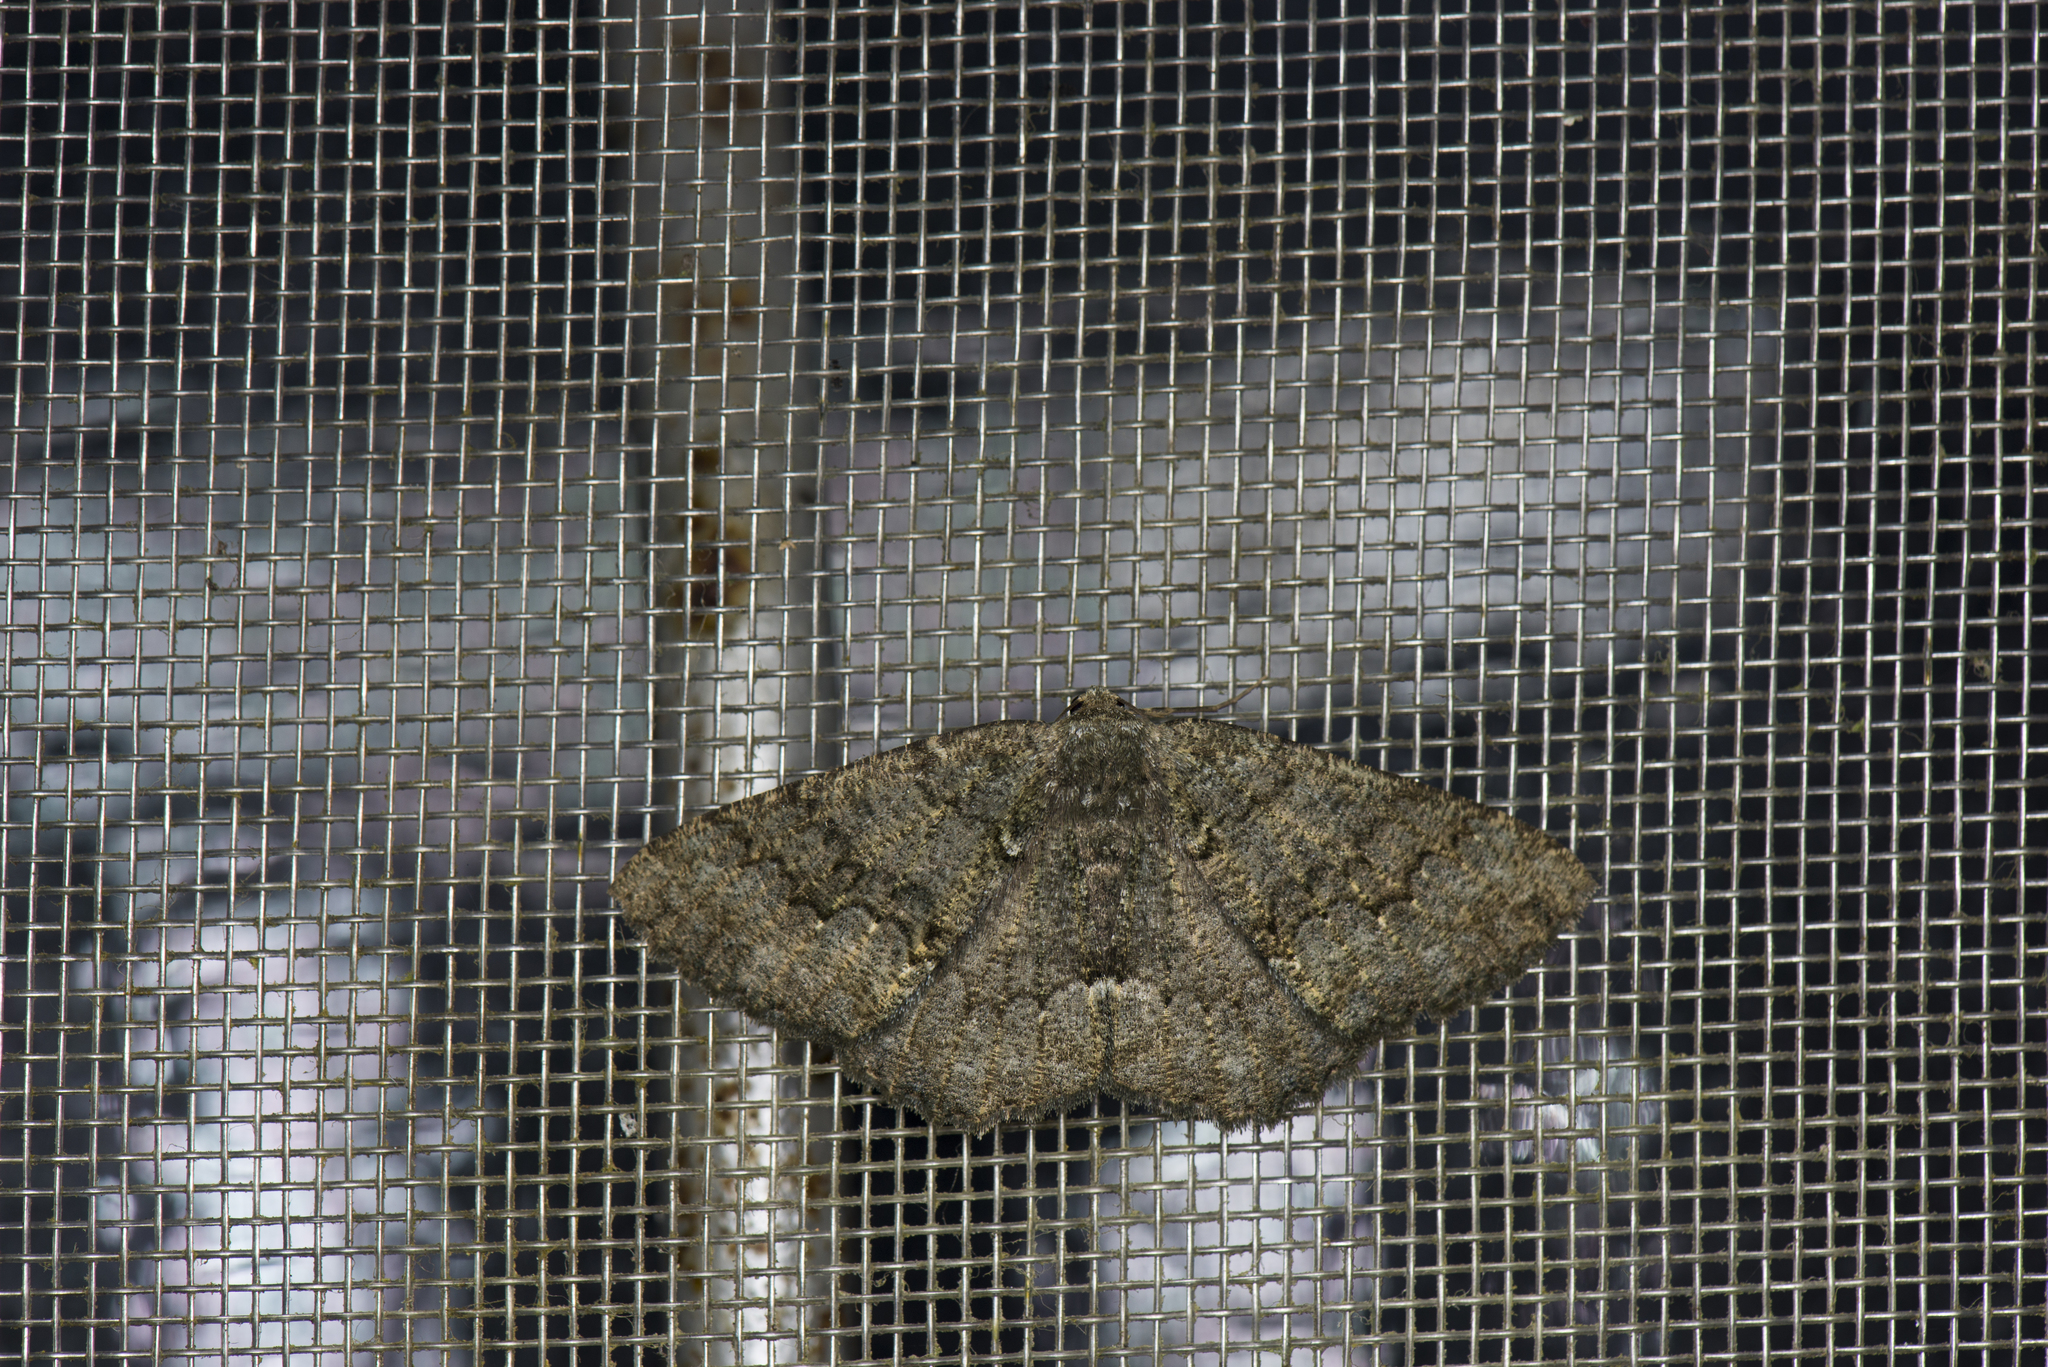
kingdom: Animalia
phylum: Arthropoda
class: Insecta
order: Lepidoptera
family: Geometridae
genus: Gnophos
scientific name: Gnophos caenosa
